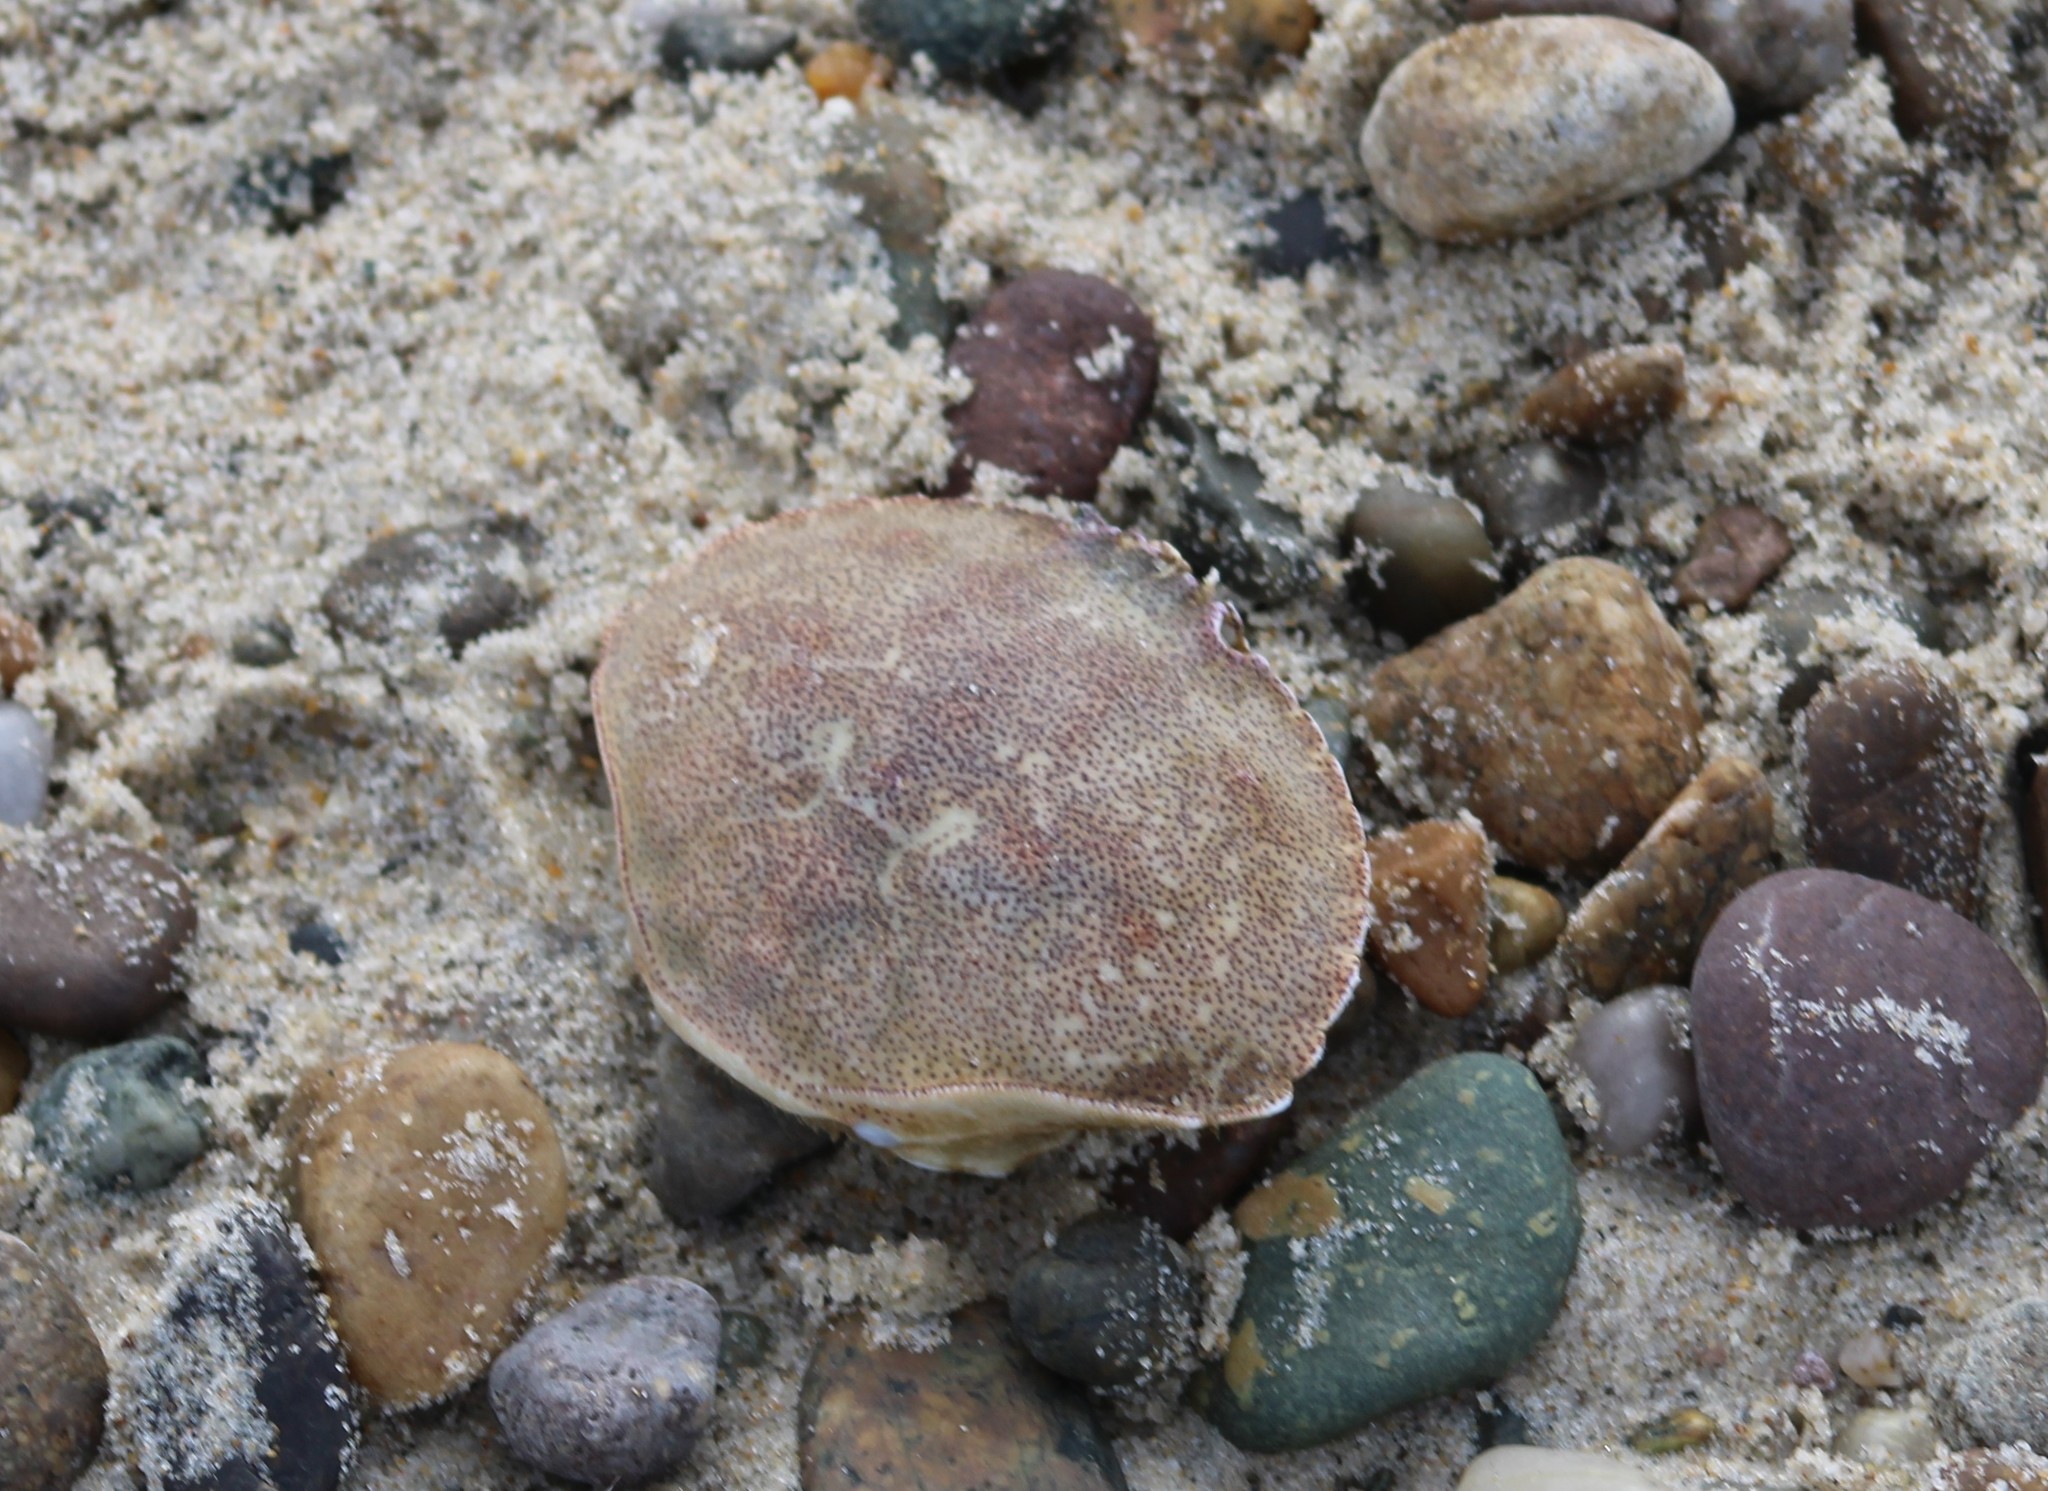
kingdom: Animalia
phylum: Arthropoda
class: Malacostraca
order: Decapoda
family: Cancridae
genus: Cancer
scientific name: Cancer irroratus
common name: Atlantic rock crab
